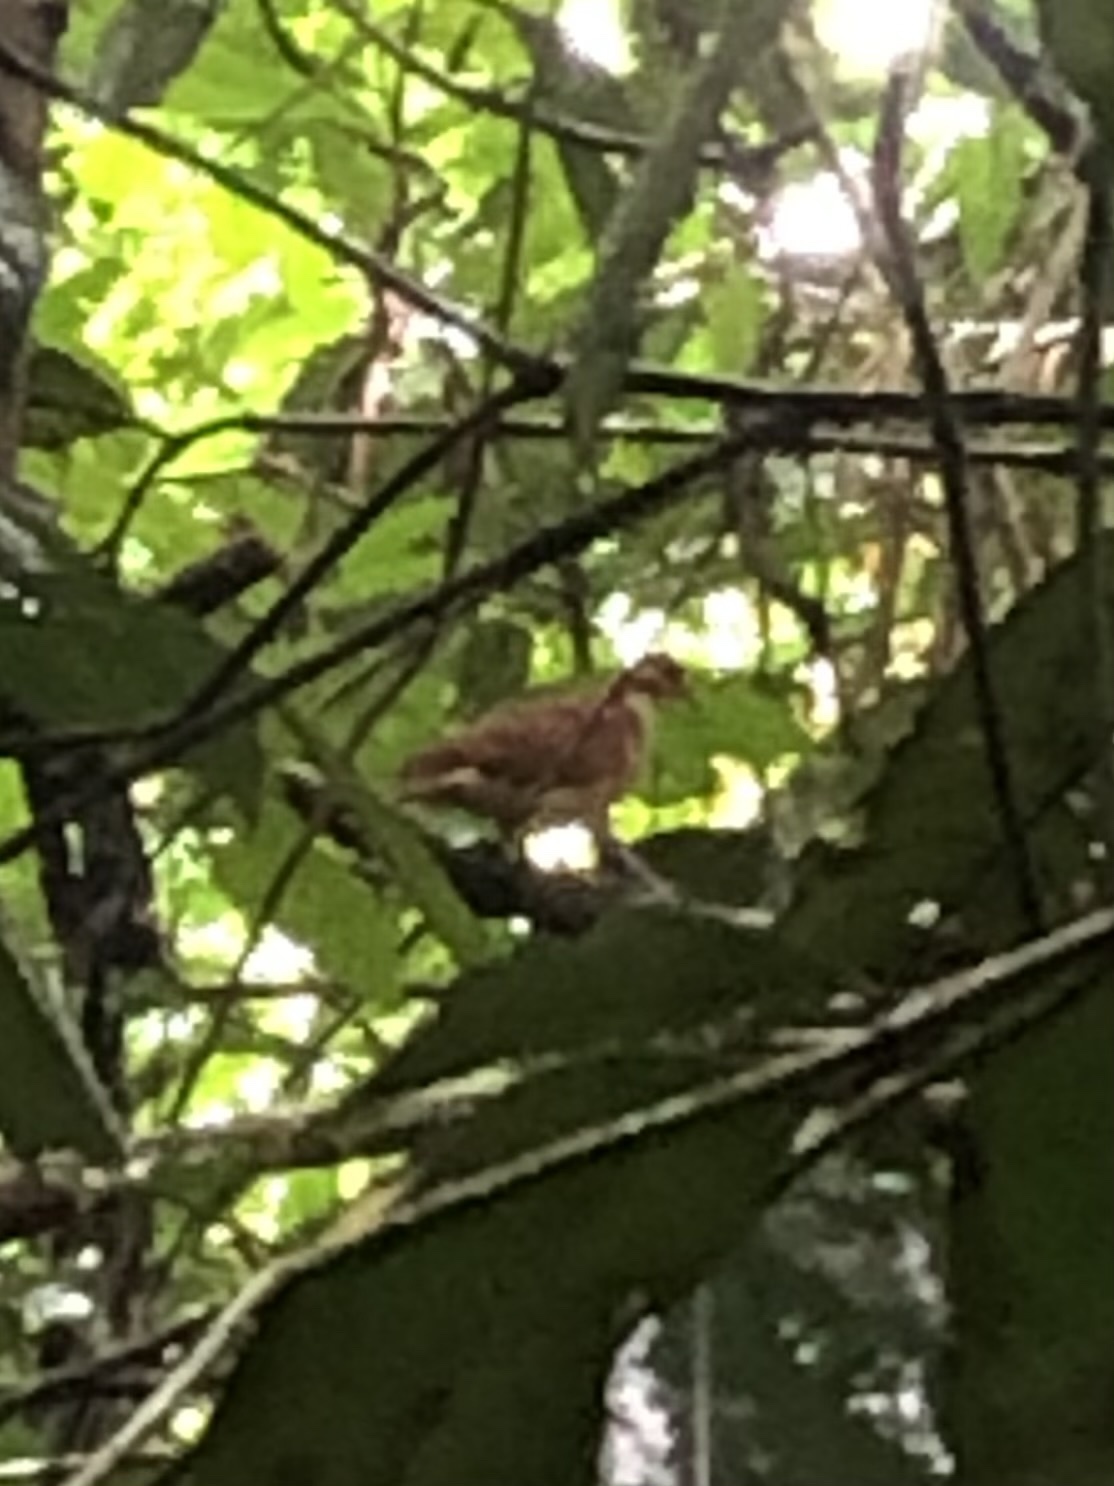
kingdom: Animalia
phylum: Chordata
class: Aves
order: Columbiformes
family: Columbidae
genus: Geotrygon
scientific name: Geotrygon montana
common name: Ruddy quail-dove
